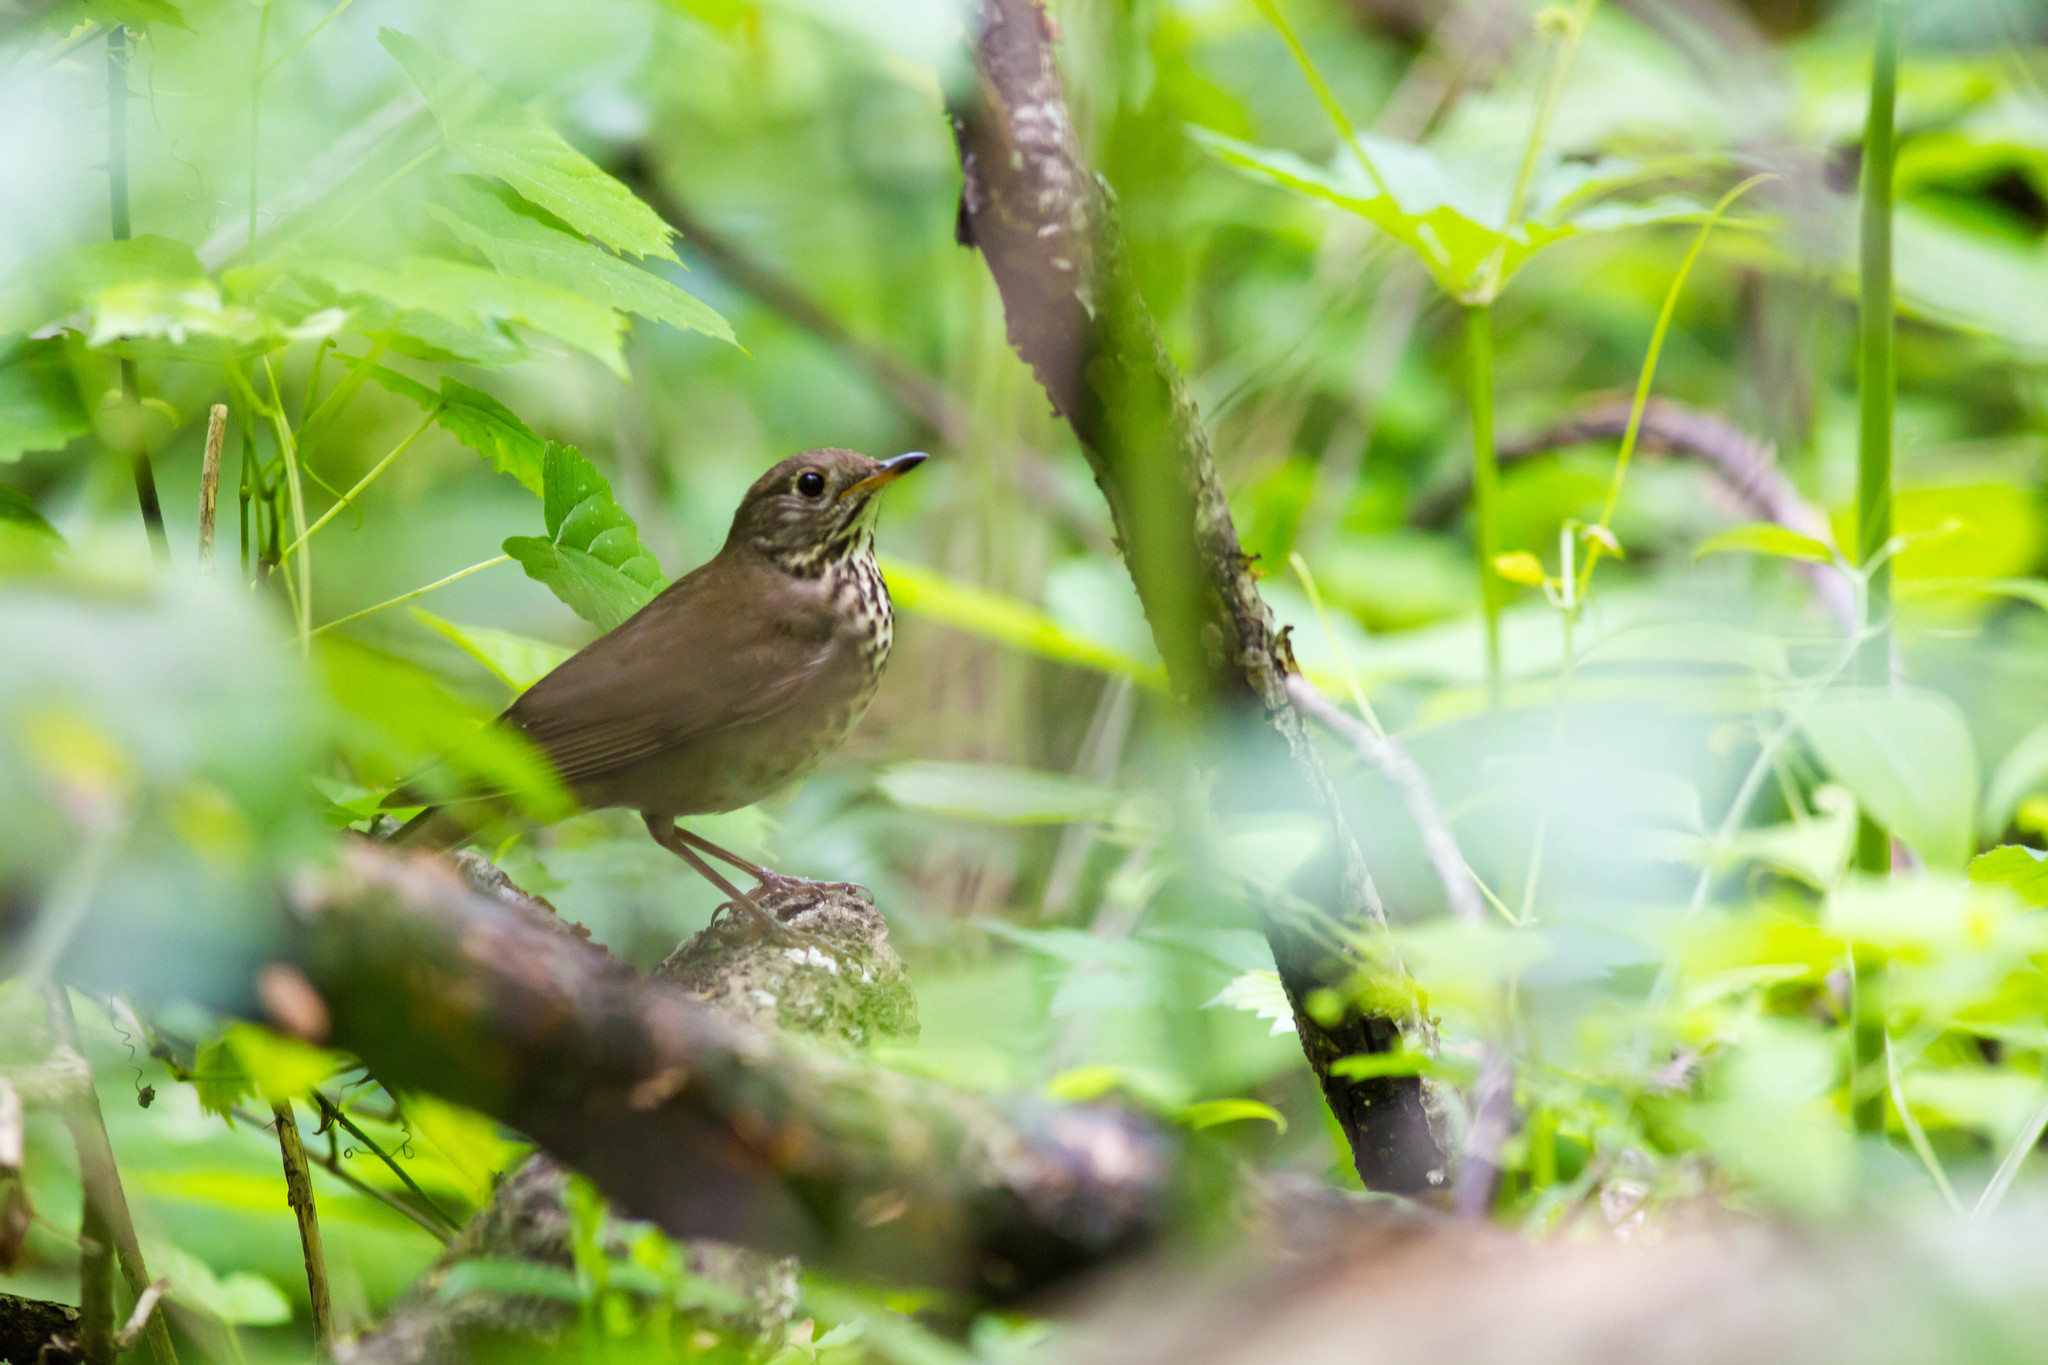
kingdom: Animalia
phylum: Chordata
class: Aves
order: Passeriformes
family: Turdidae
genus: Catharus
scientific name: Catharus minimus
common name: Grey-cheeked thrush
